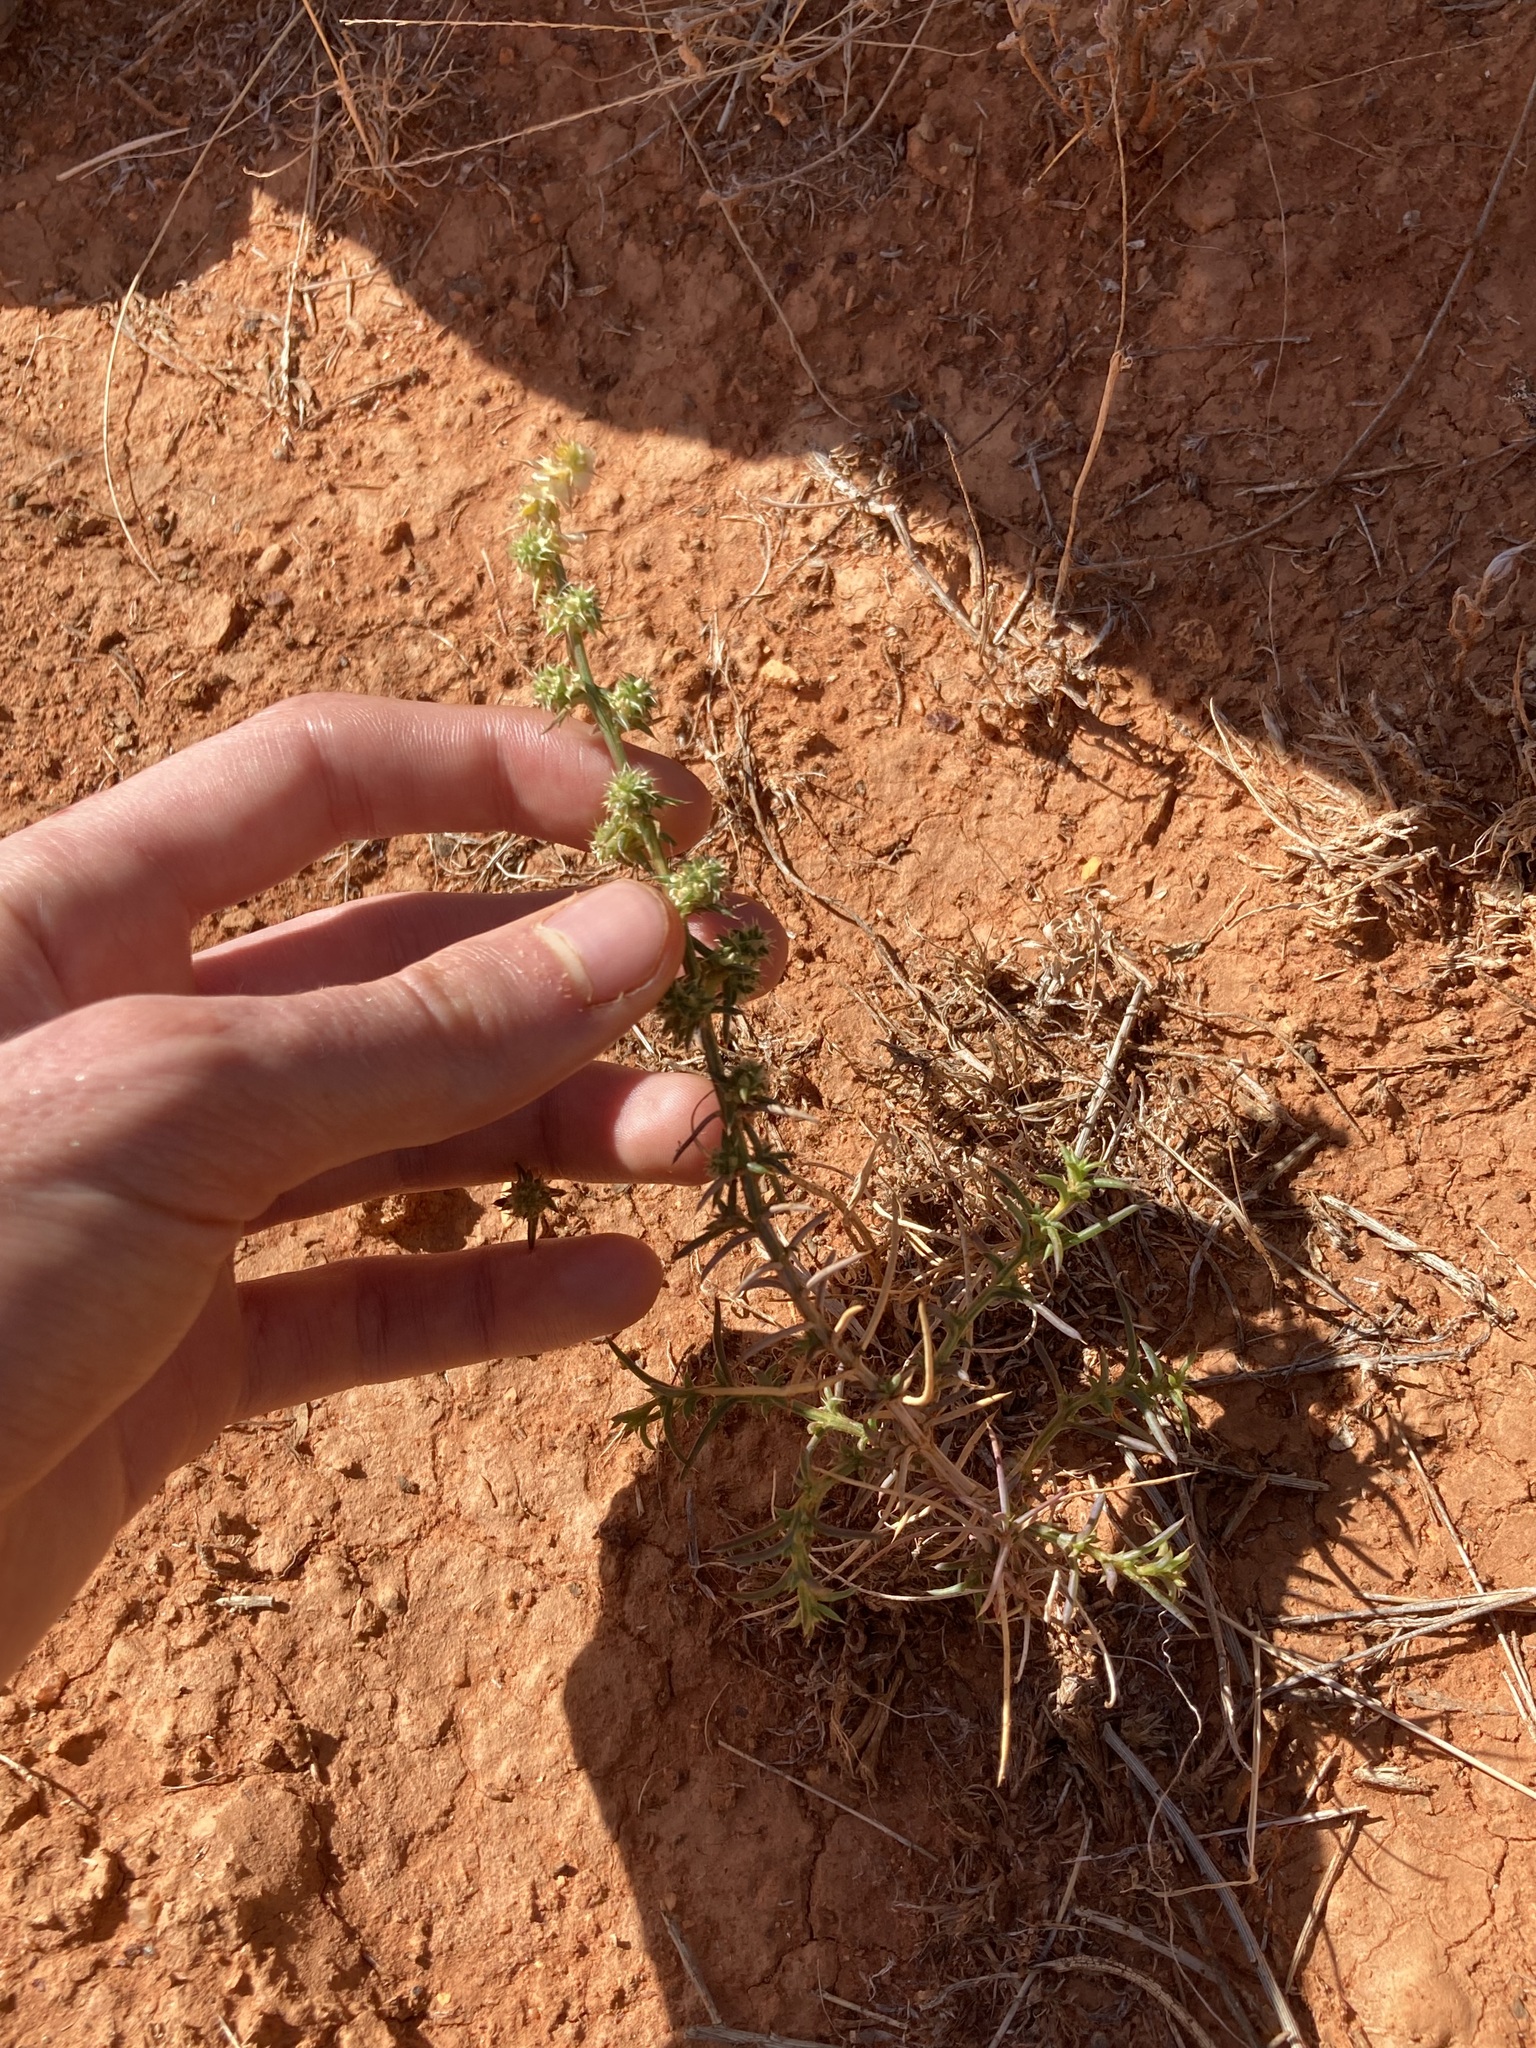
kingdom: Plantae
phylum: Tracheophyta
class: Magnoliopsida
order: Caryophyllales
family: Amaranthaceae
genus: Salsola
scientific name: Salsola australis
